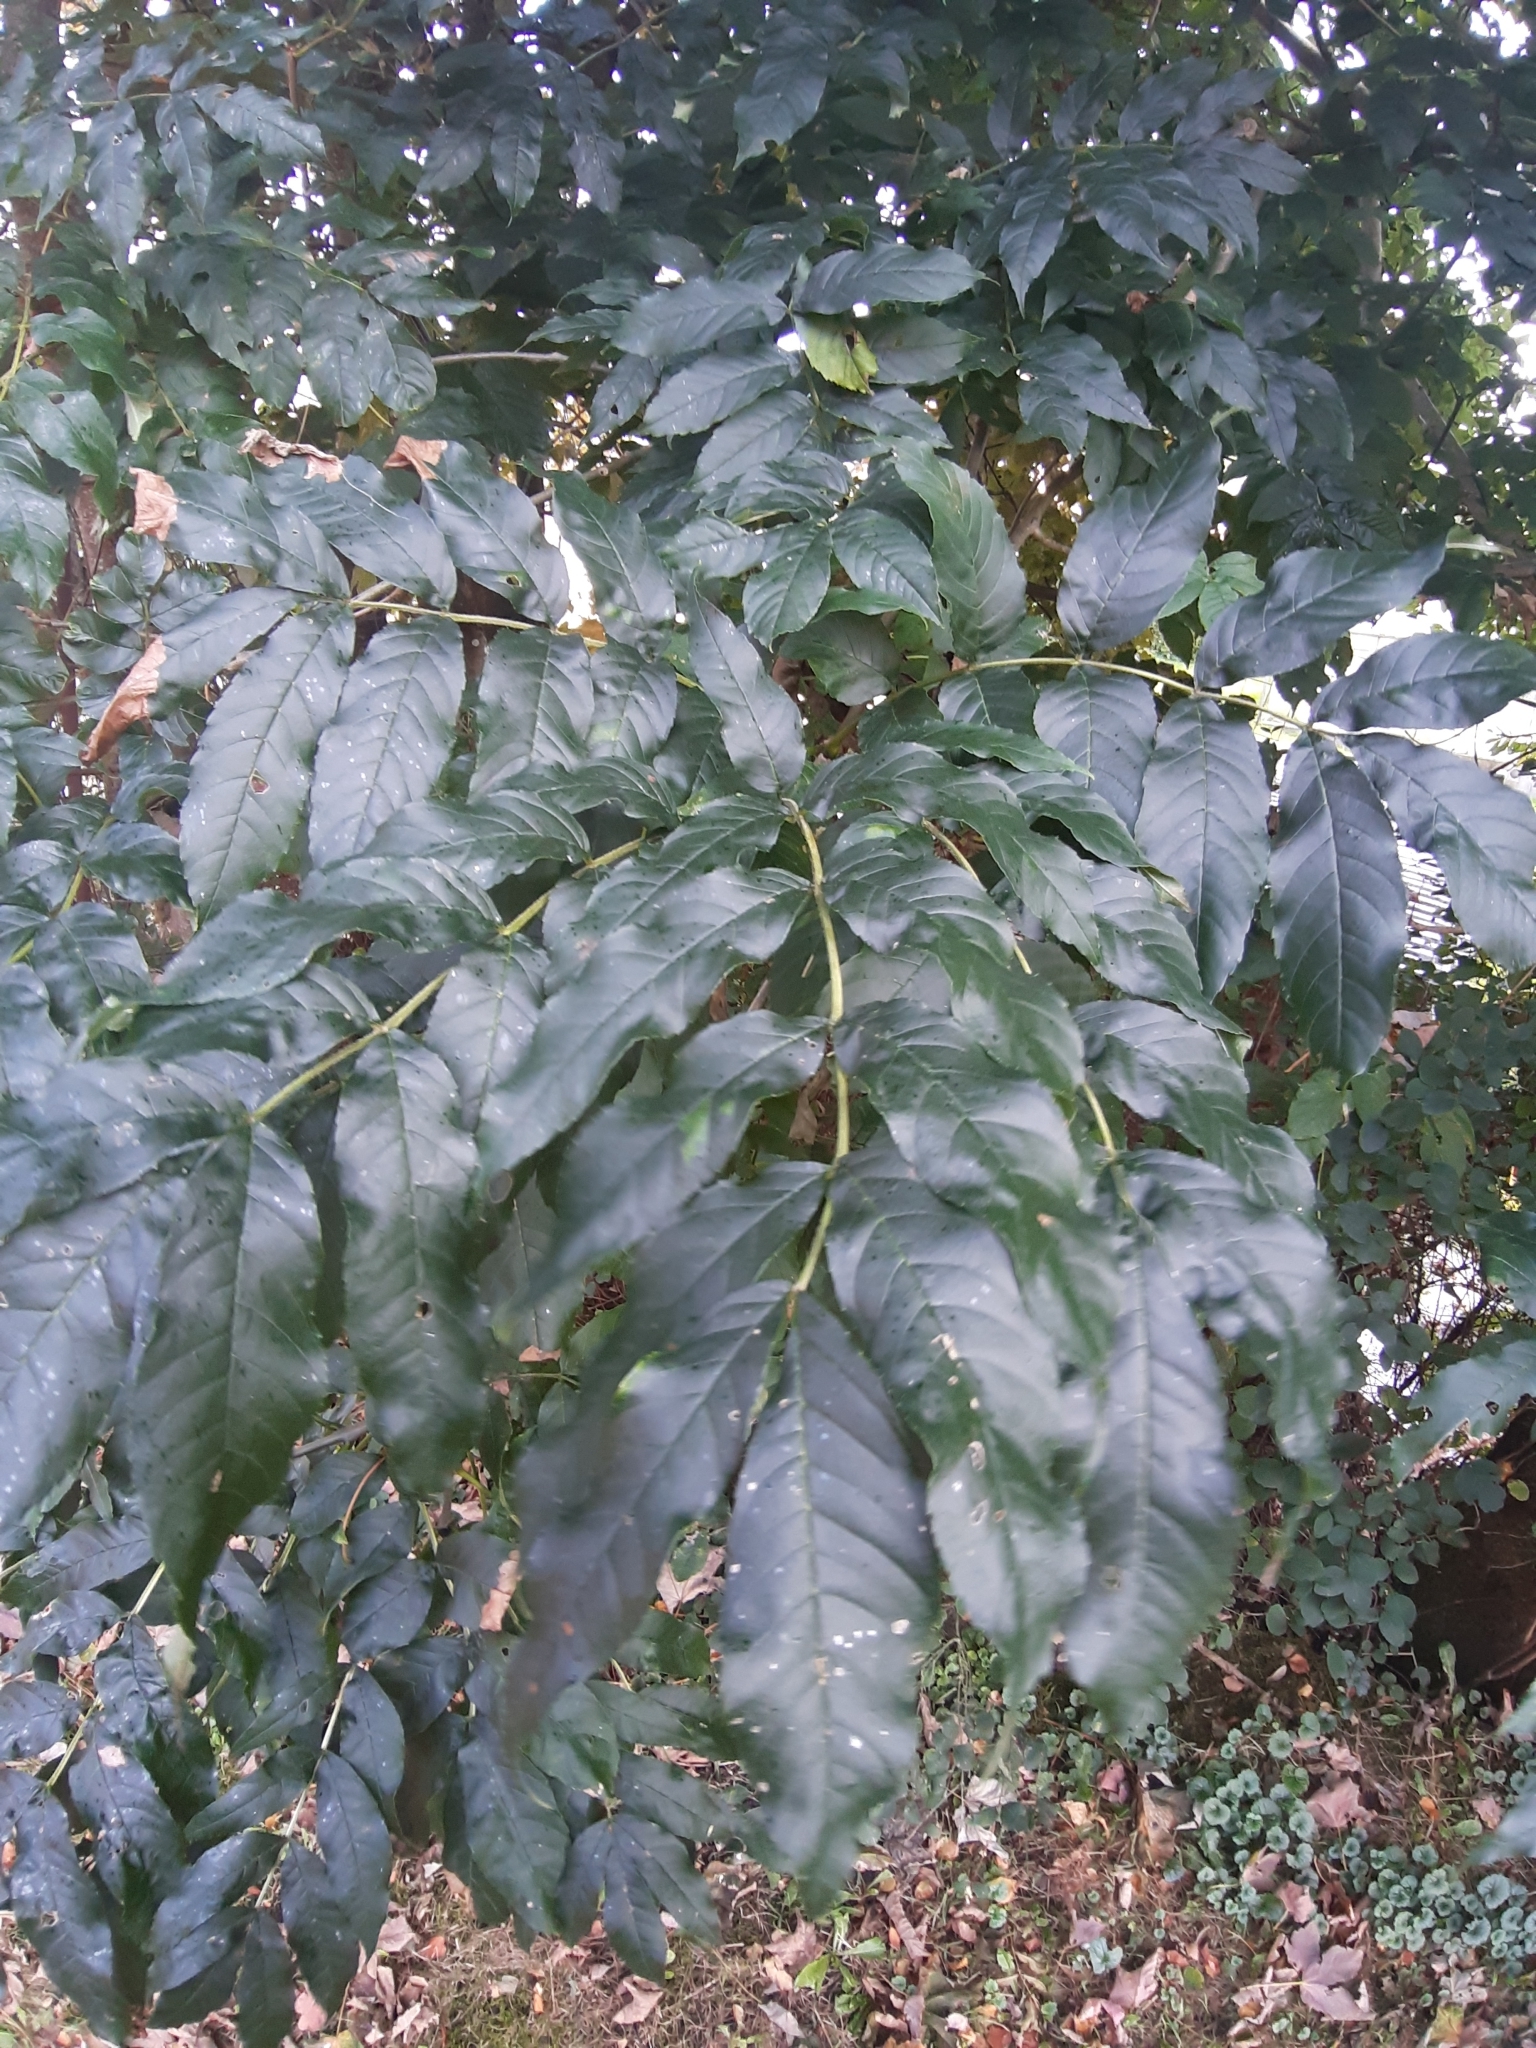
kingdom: Plantae
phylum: Tracheophyta
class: Magnoliopsida
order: Lamiales
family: Oleaceae
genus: Fraxinus
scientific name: Fraxinus excelsior
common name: European ash
